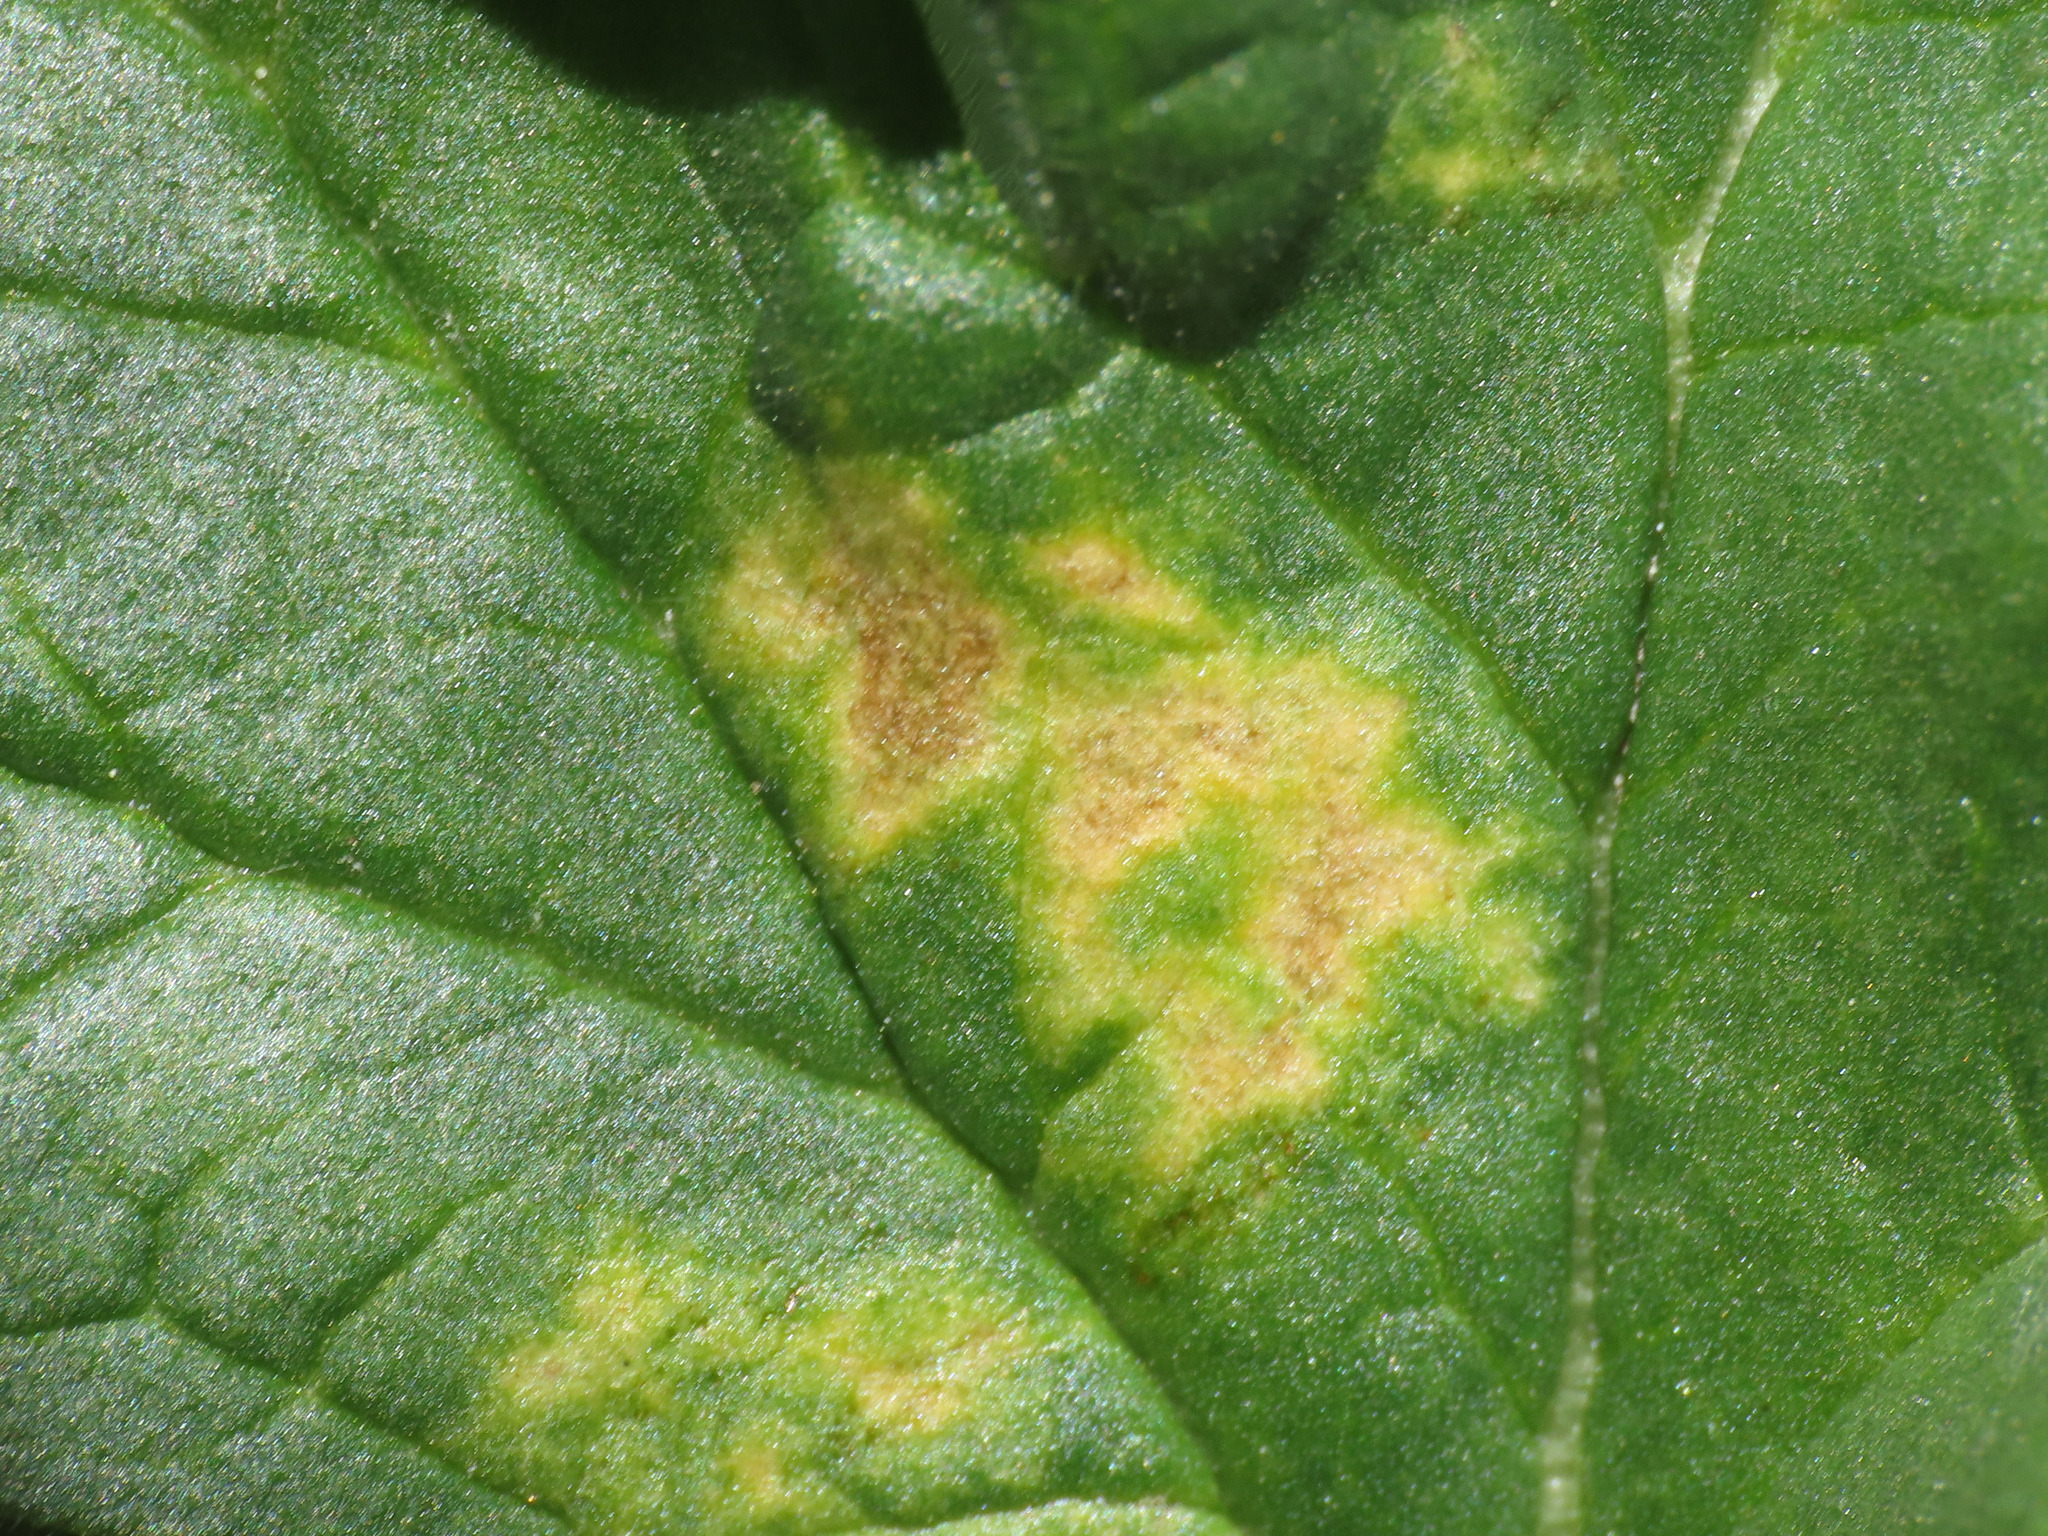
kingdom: Chromista
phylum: Oomycota
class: Peronosporea
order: Peronosporales
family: Peronosporaceae
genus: Peronospora
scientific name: Peronospora erodii
